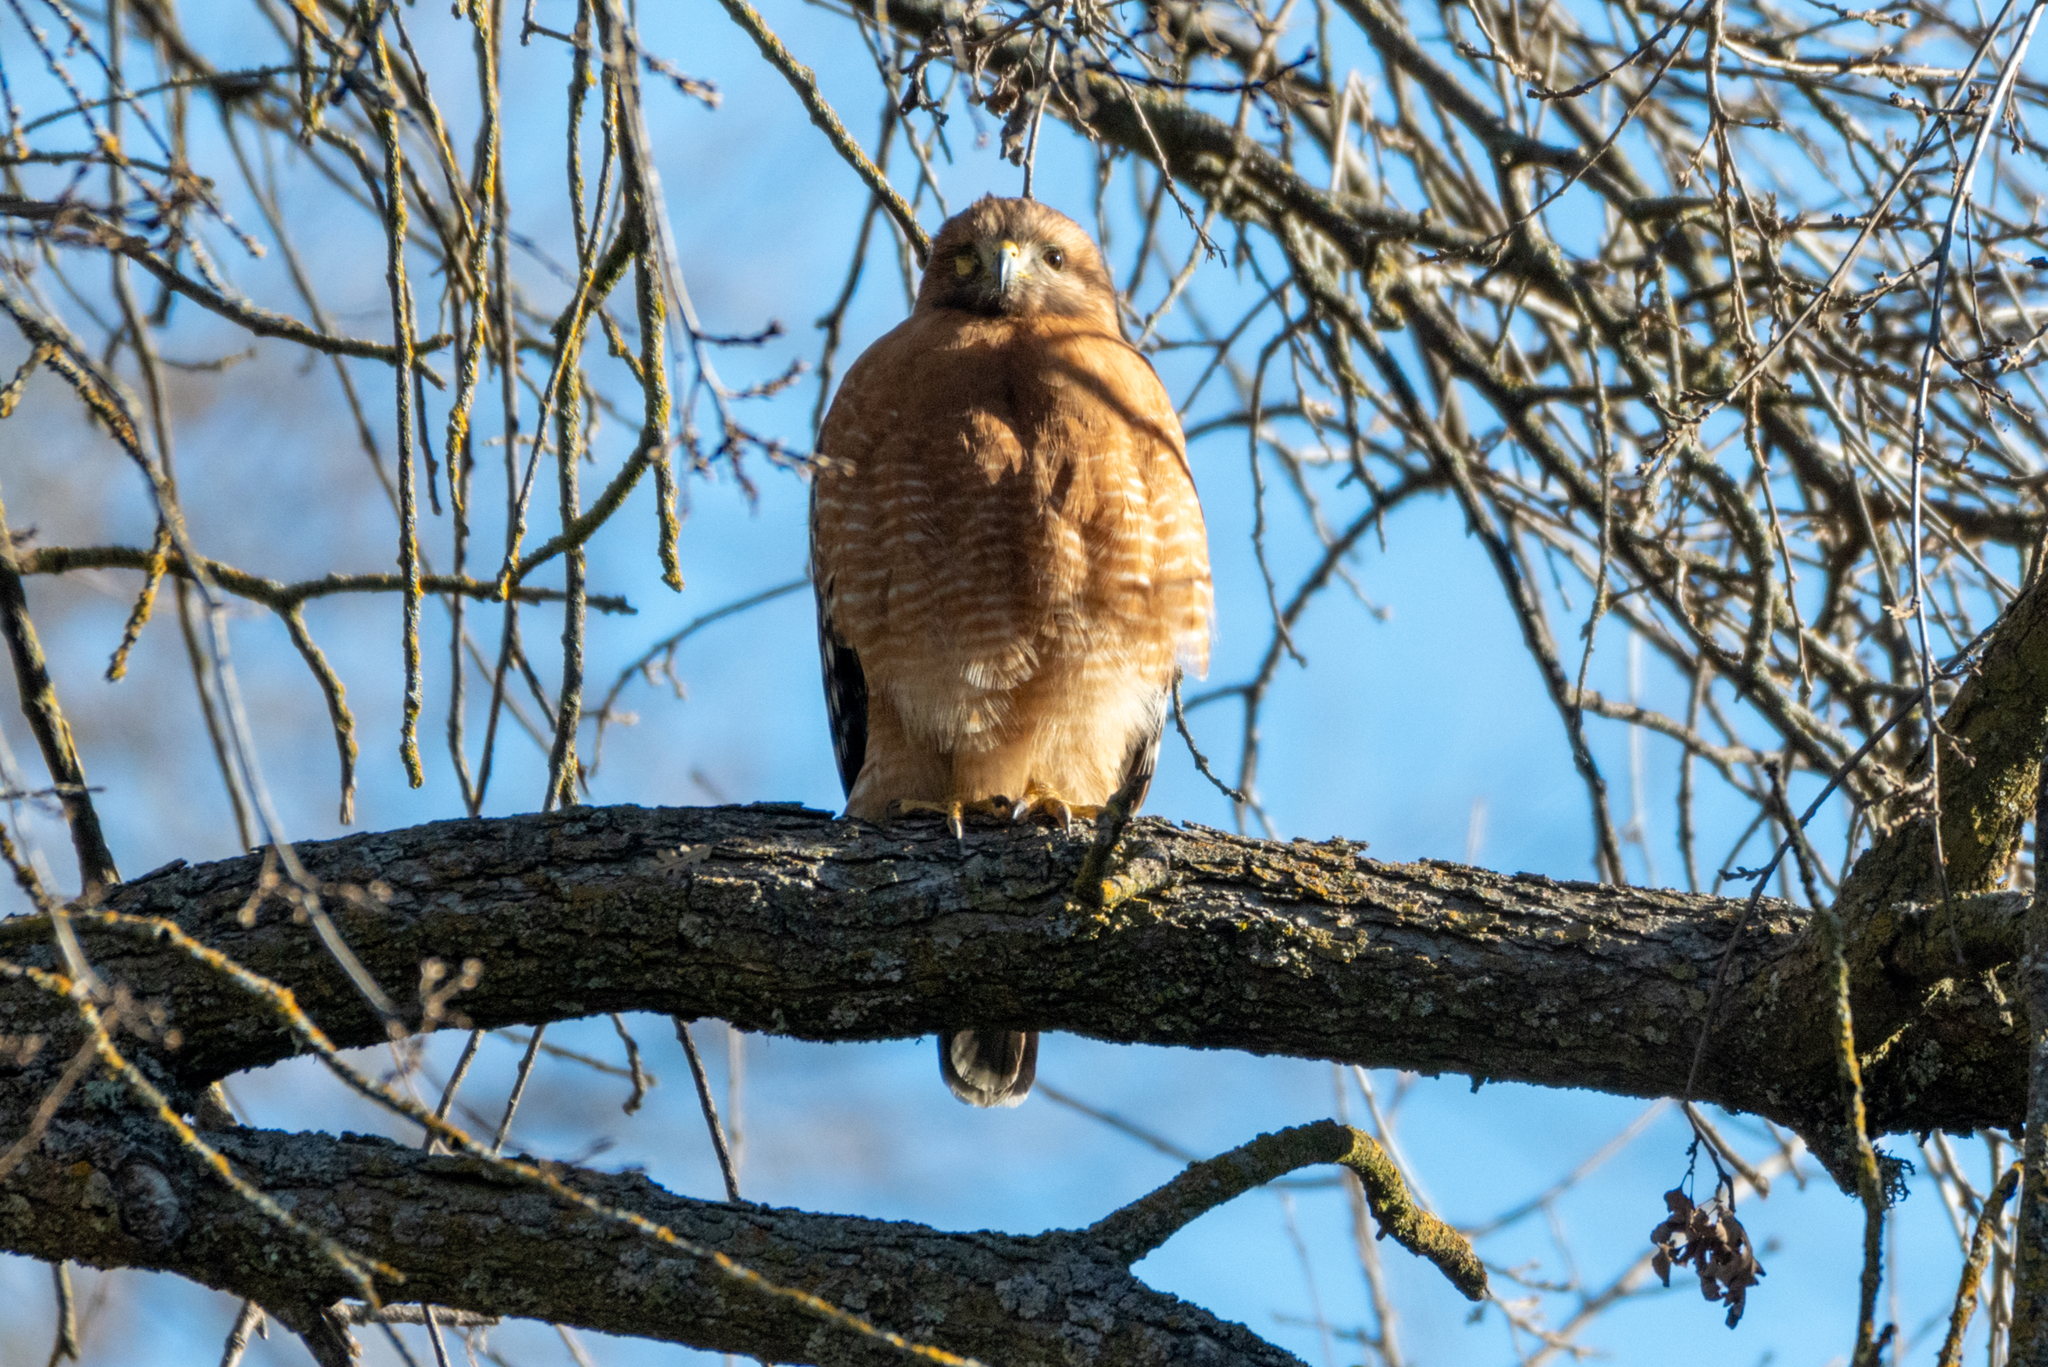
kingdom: Animalia
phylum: Chordata
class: Aves
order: Accipitriformes
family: Accipitridae
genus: Buteo
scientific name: Buteo lineatus
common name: Red-shouldered hawk
